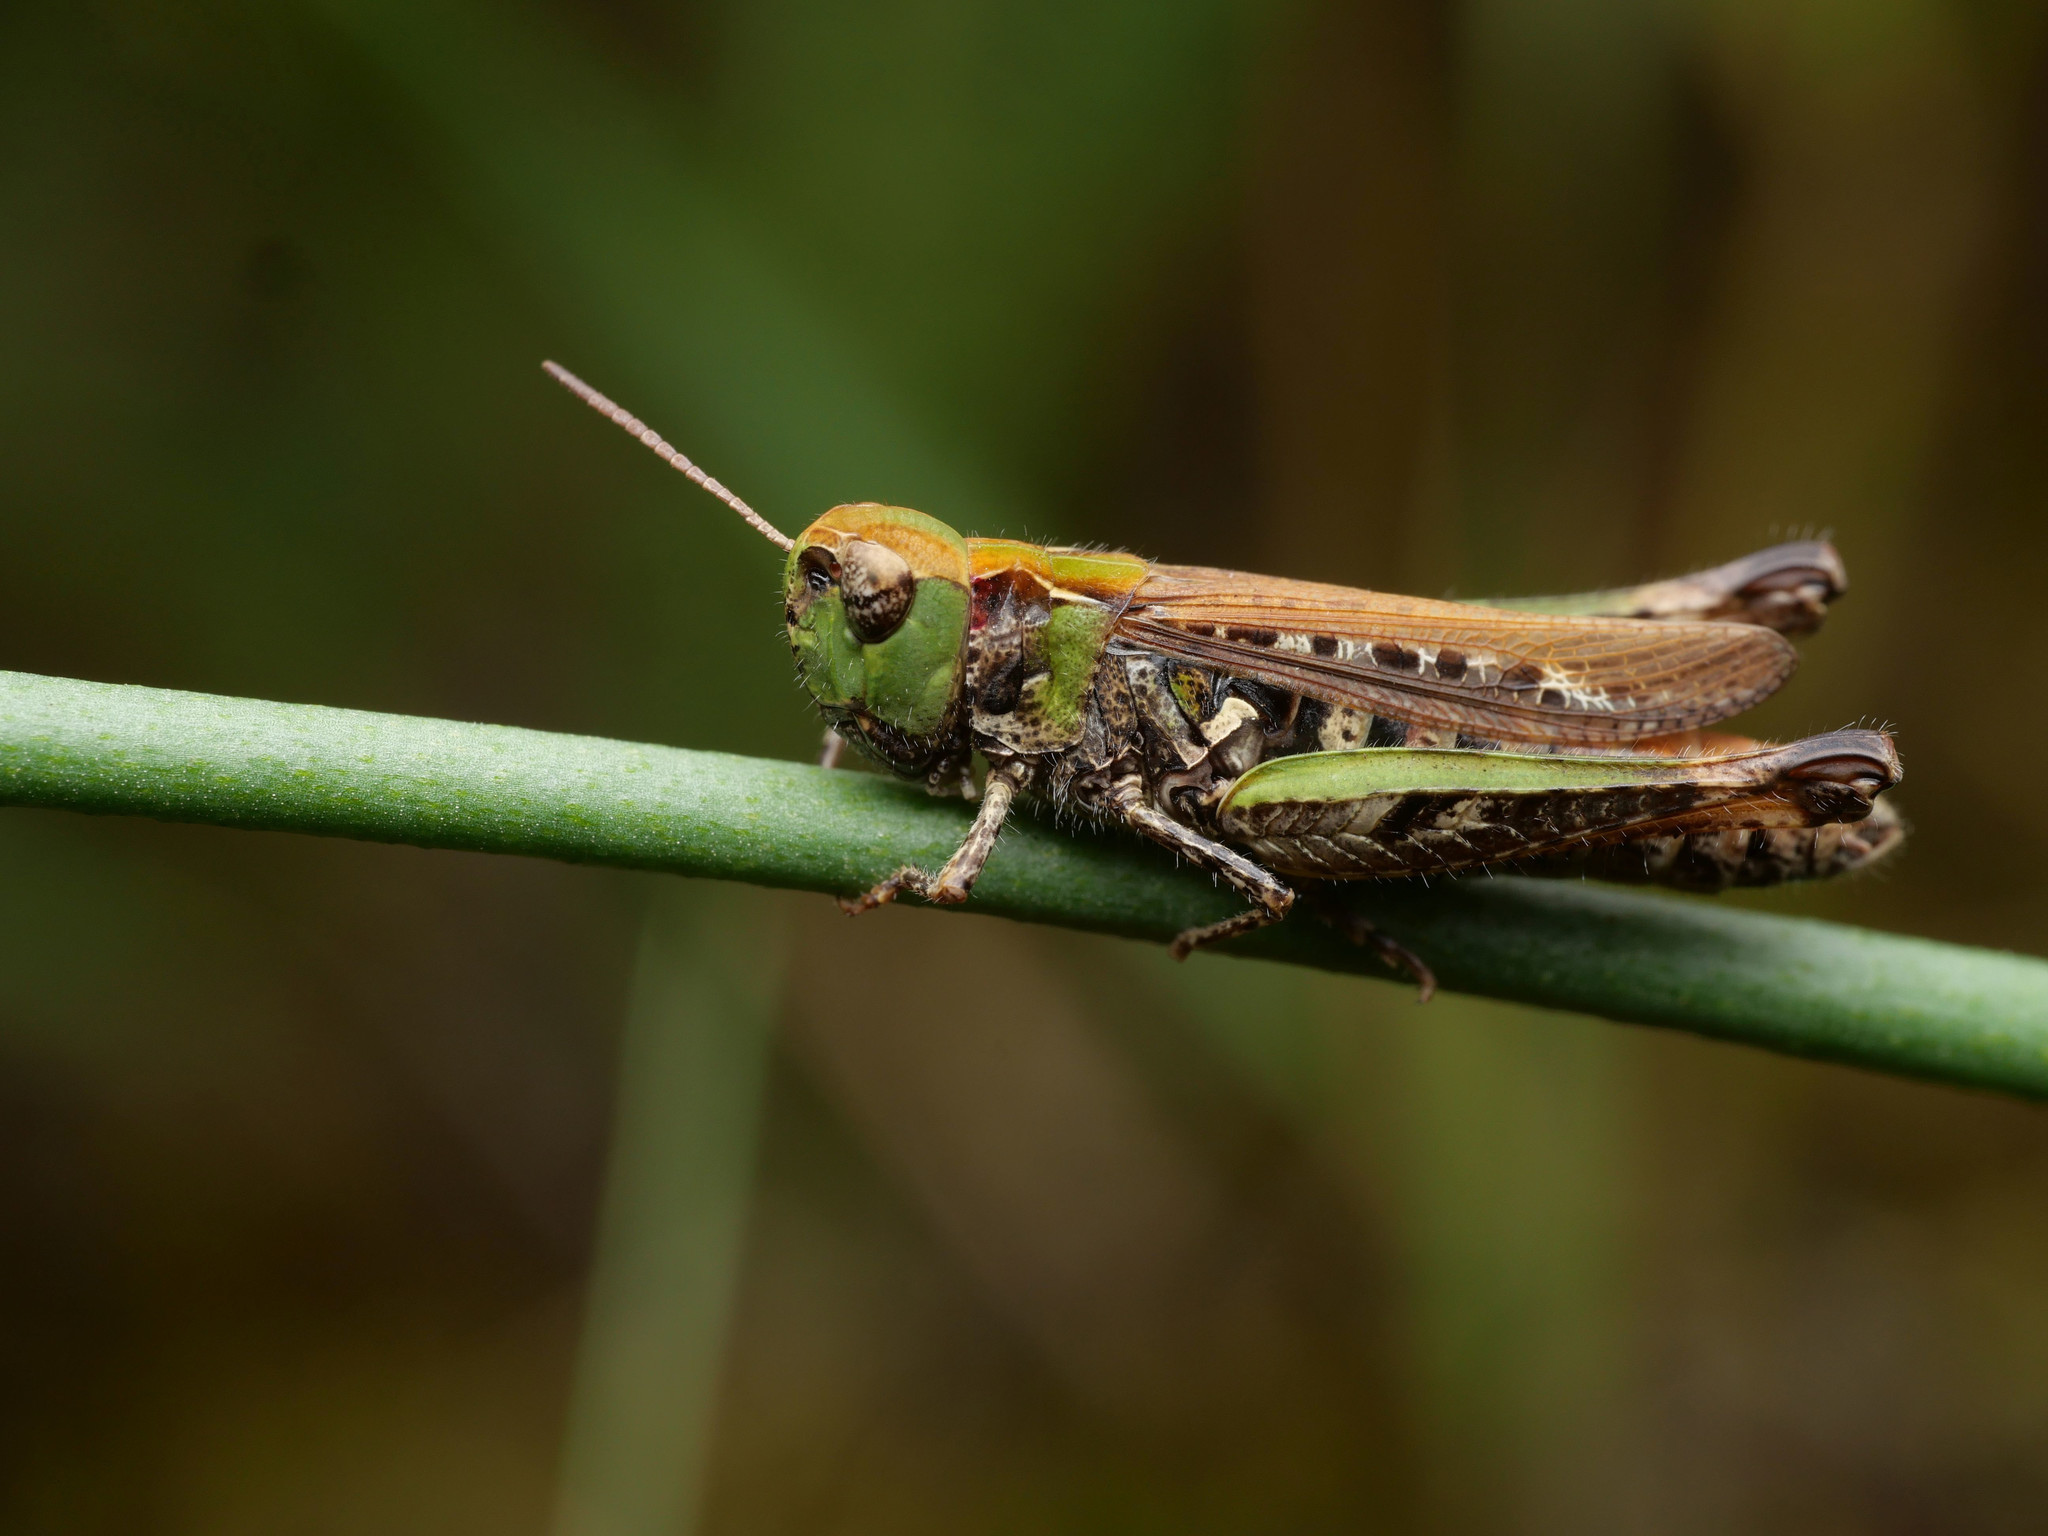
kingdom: Animalia
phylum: Arthropoda
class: Insecta
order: Orthoptera
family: Acrididae
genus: Myrmeleotettix
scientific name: Myrmeleotettix maculatus
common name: Mottled grasshopper
